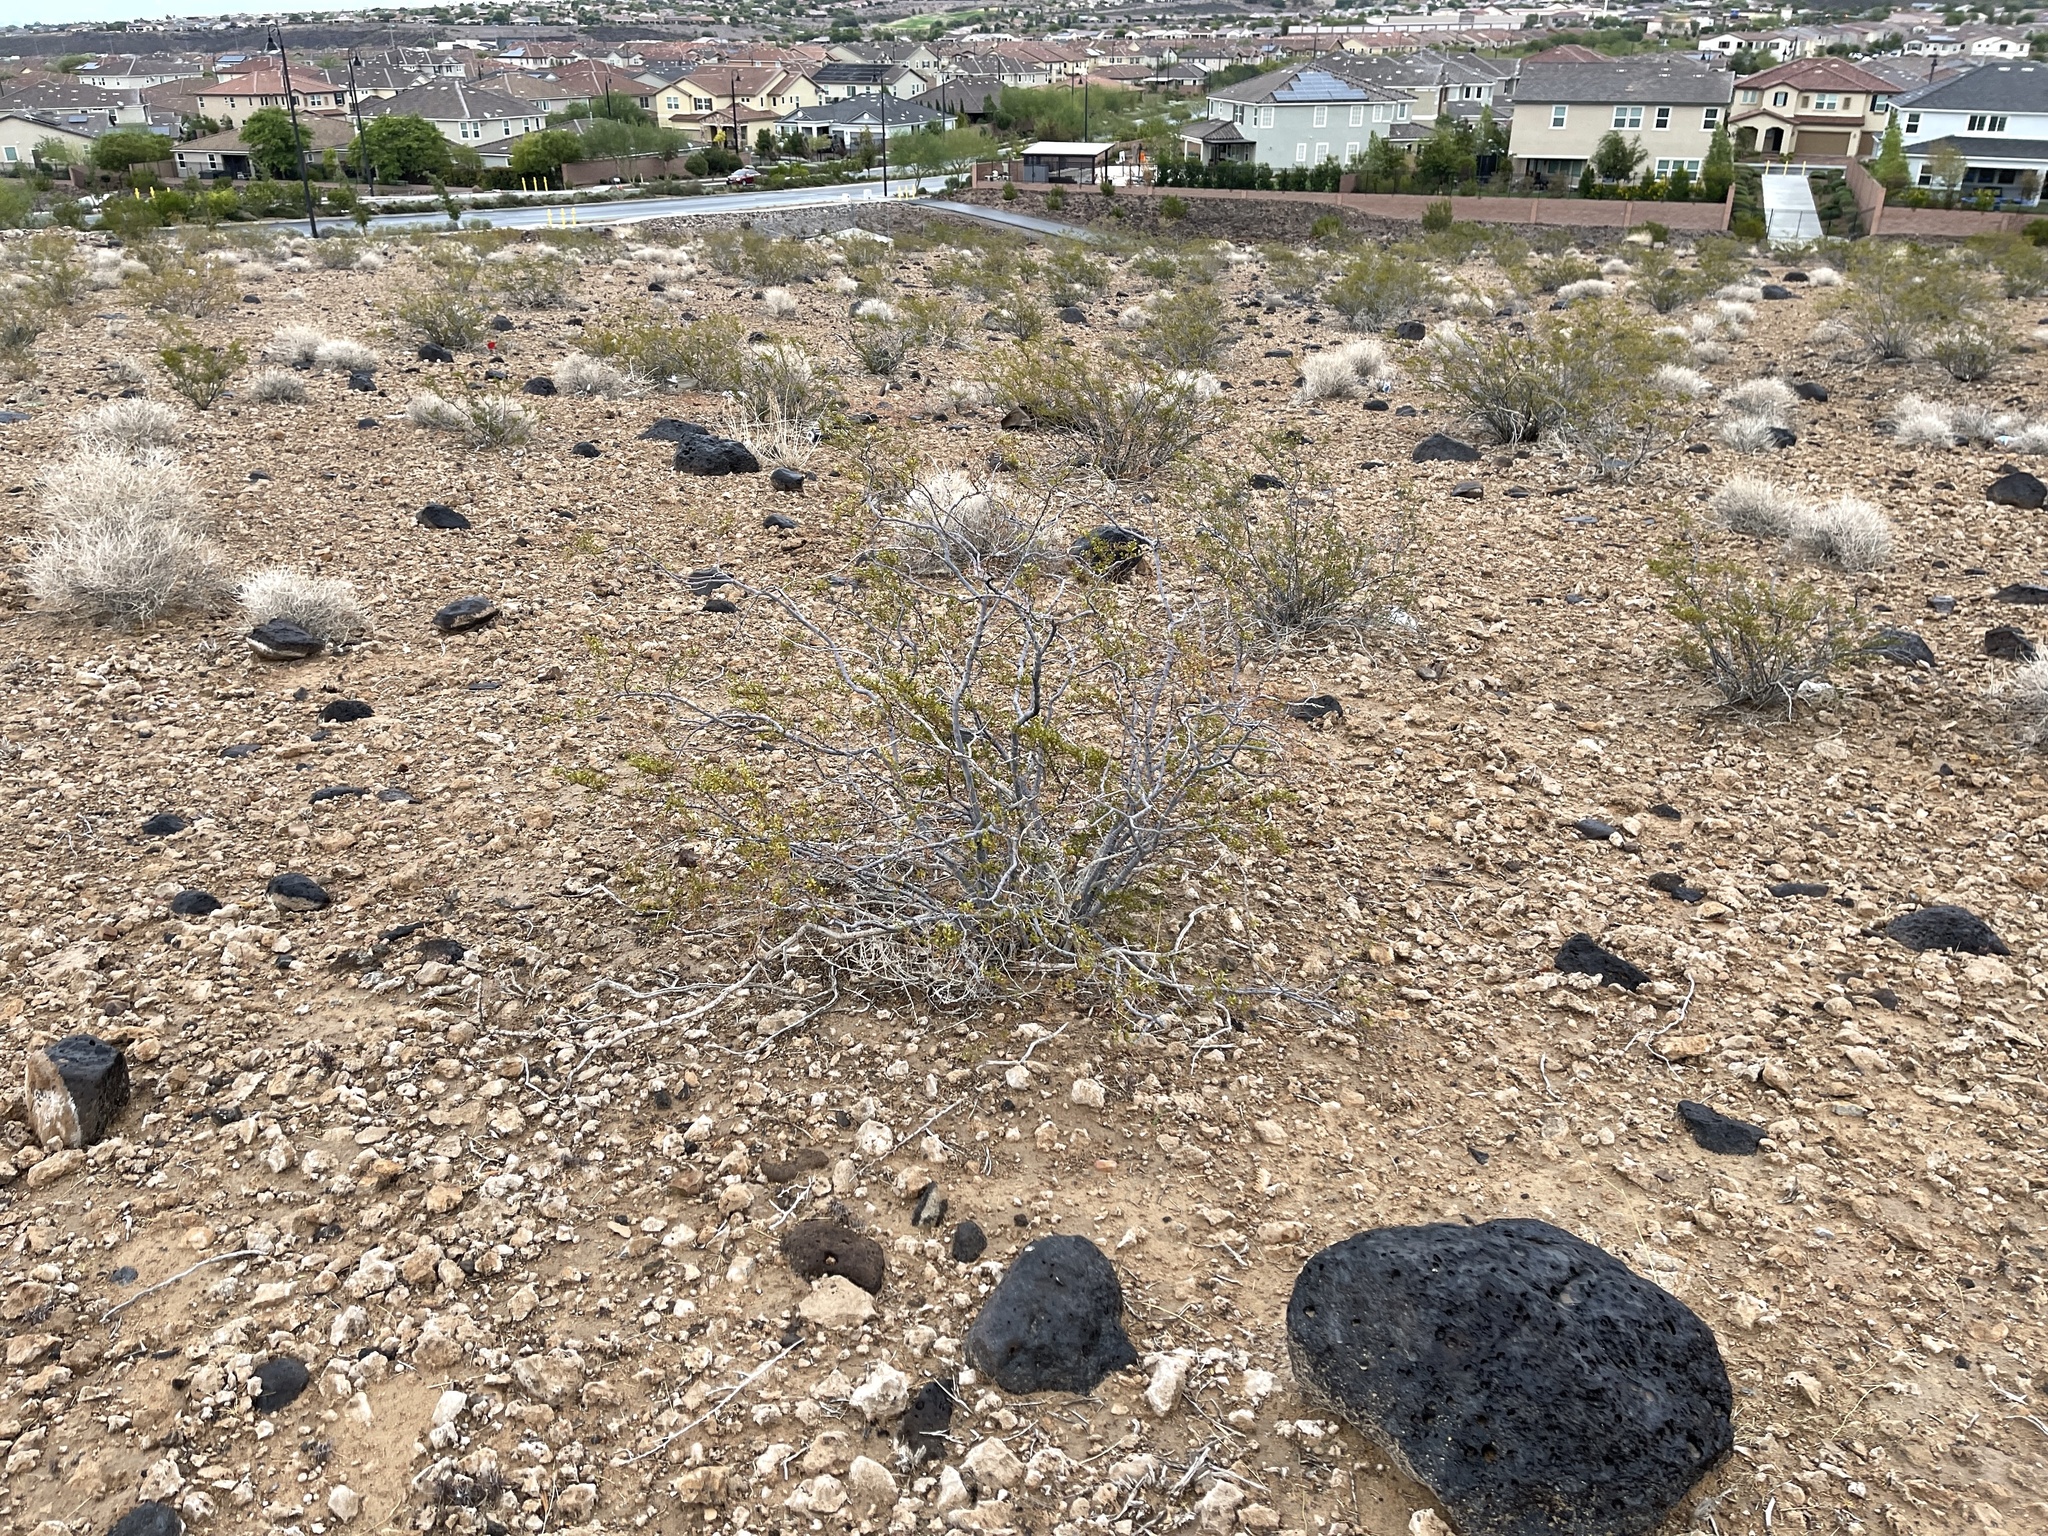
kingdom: Plantae
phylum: Tracheophyta
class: Magnoliopsida
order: Zygophyllales
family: Zygophyllaceae
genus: Larrea
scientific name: Larrea tridentata
